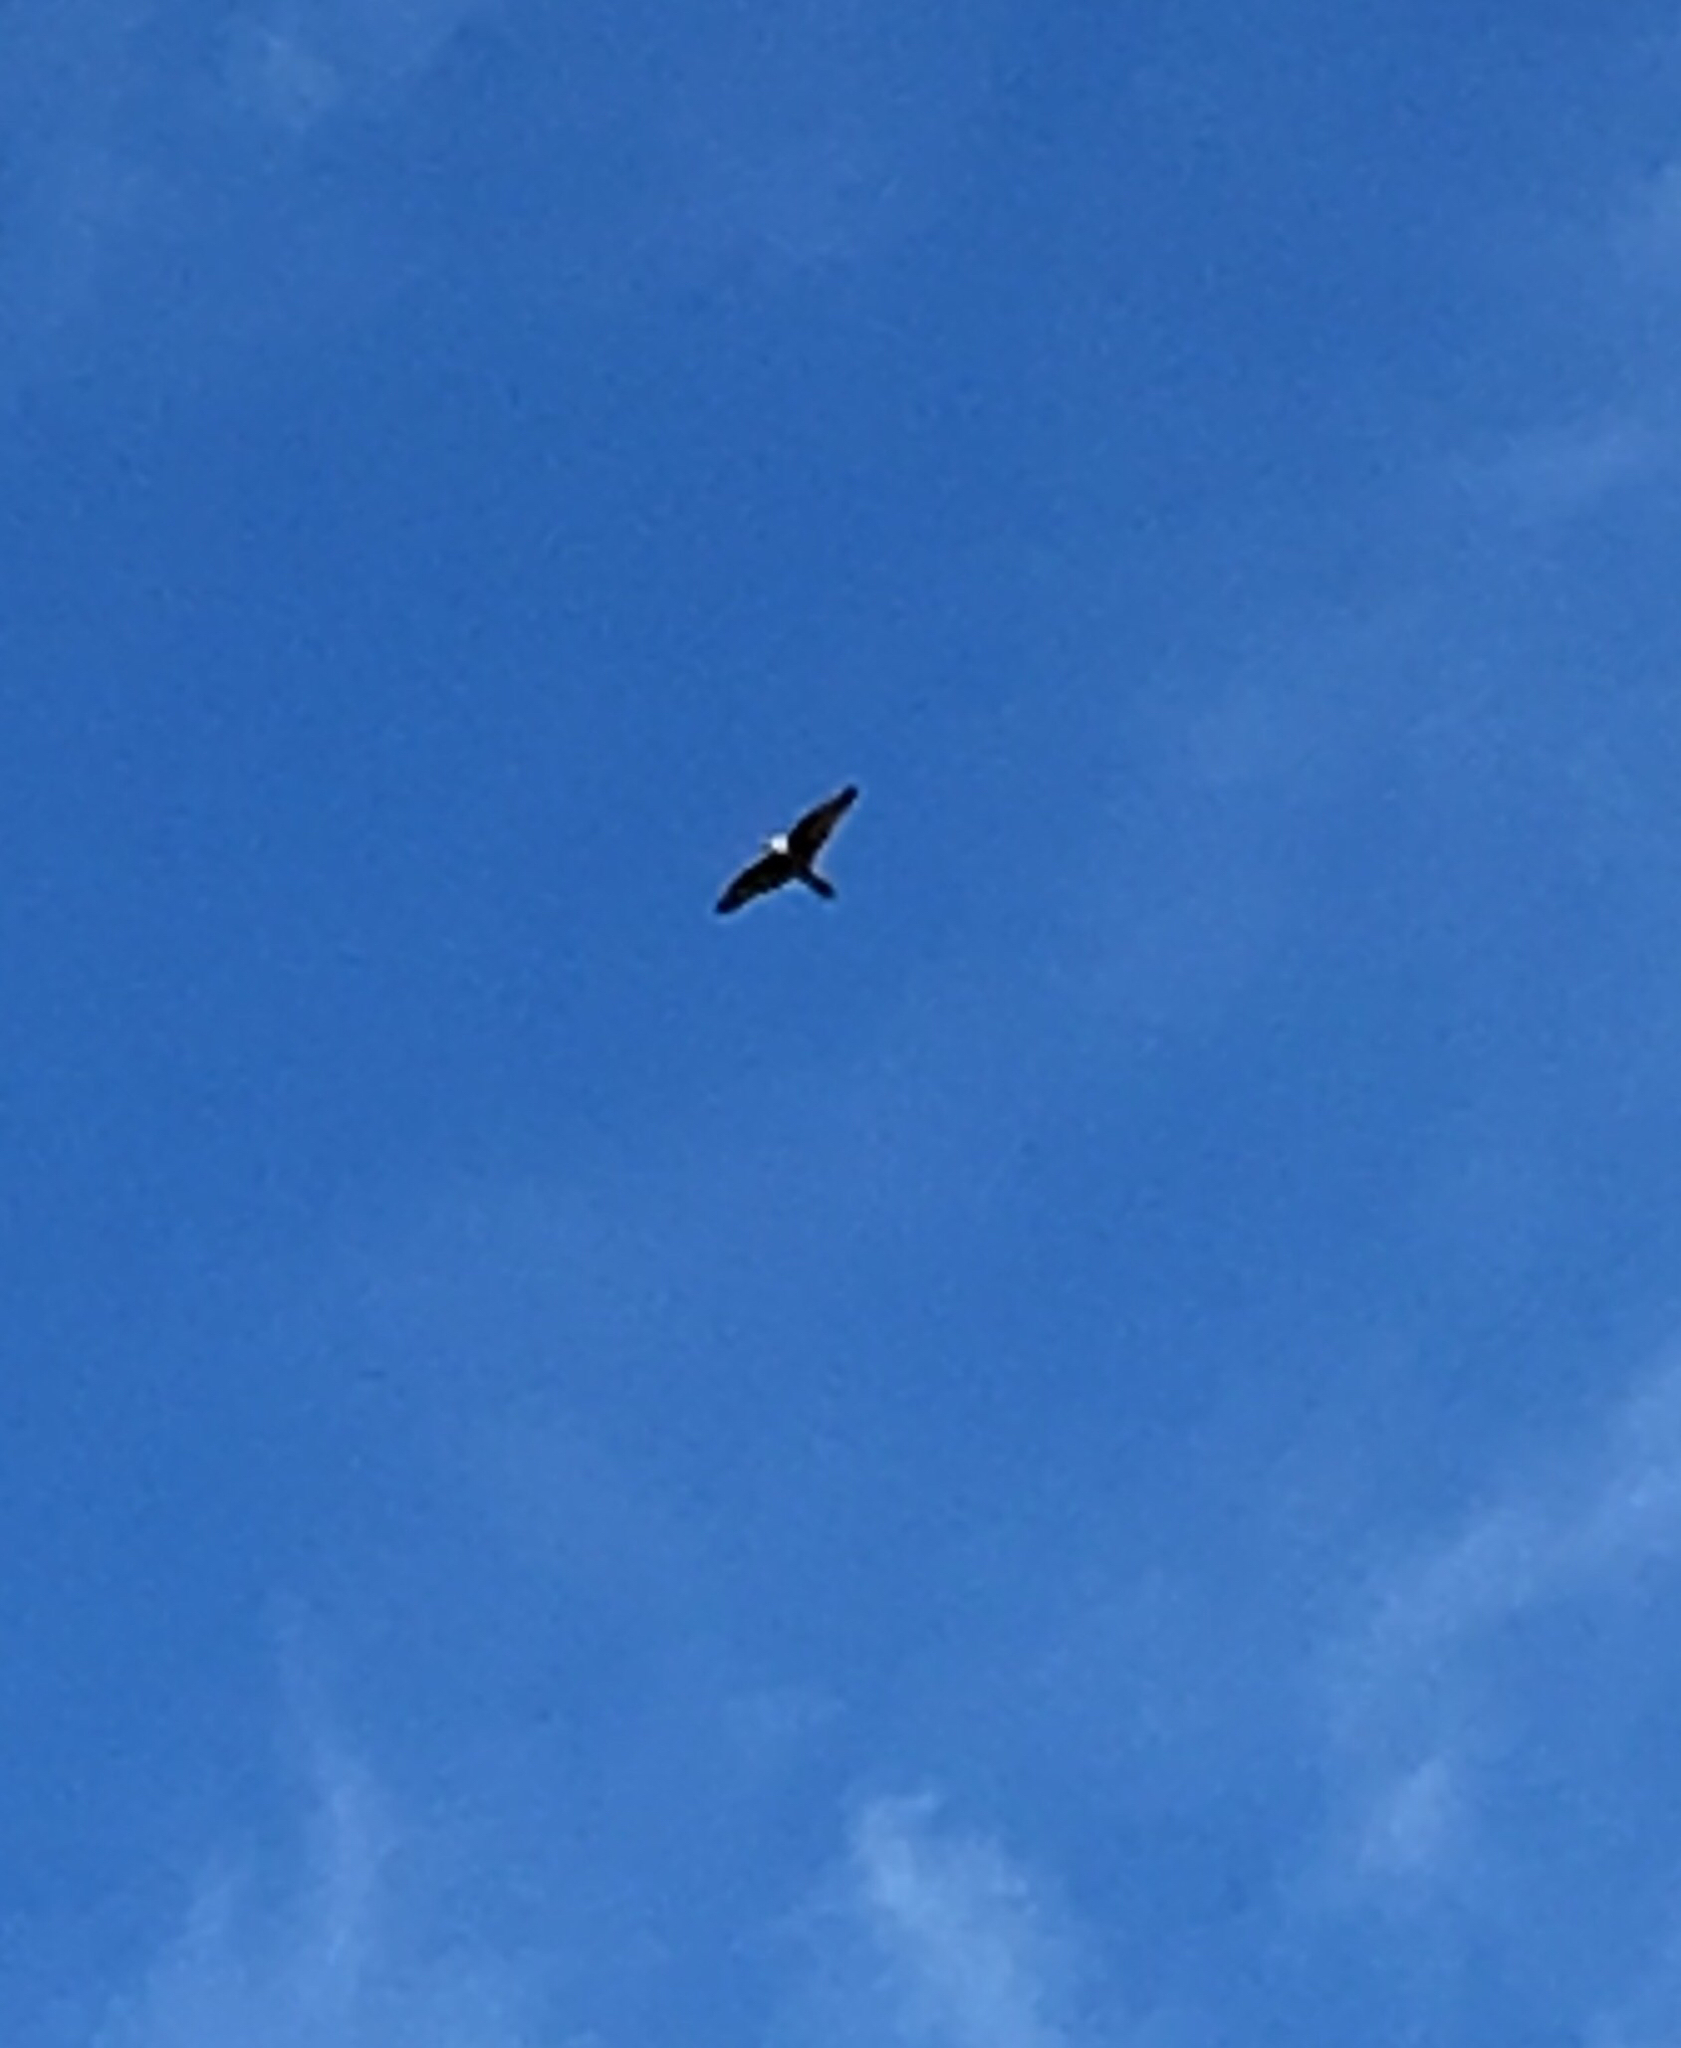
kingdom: Animalia
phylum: Chordata
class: Aves
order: Falconiformes
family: Falconidae
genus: Falco
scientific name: Falco peregrinus
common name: Peregrine falcon
